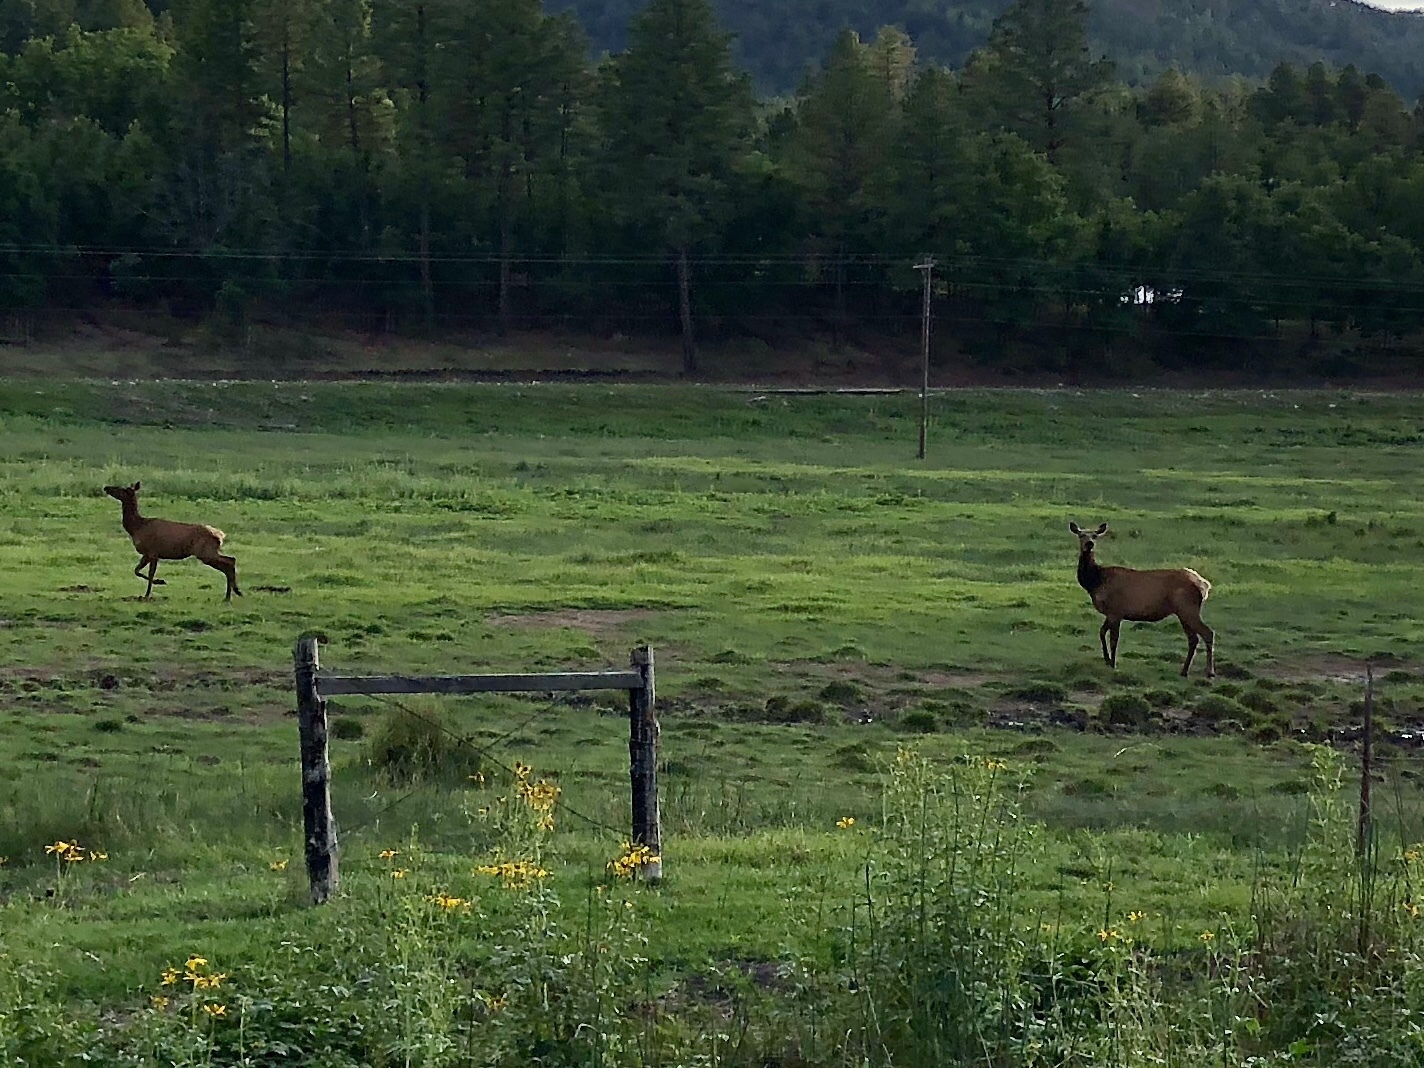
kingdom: Animalia
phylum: Chordata
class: Mammalia
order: Artiodactyla
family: Cervidae
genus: Cervus
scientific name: Cervus elaphus
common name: Red deer
